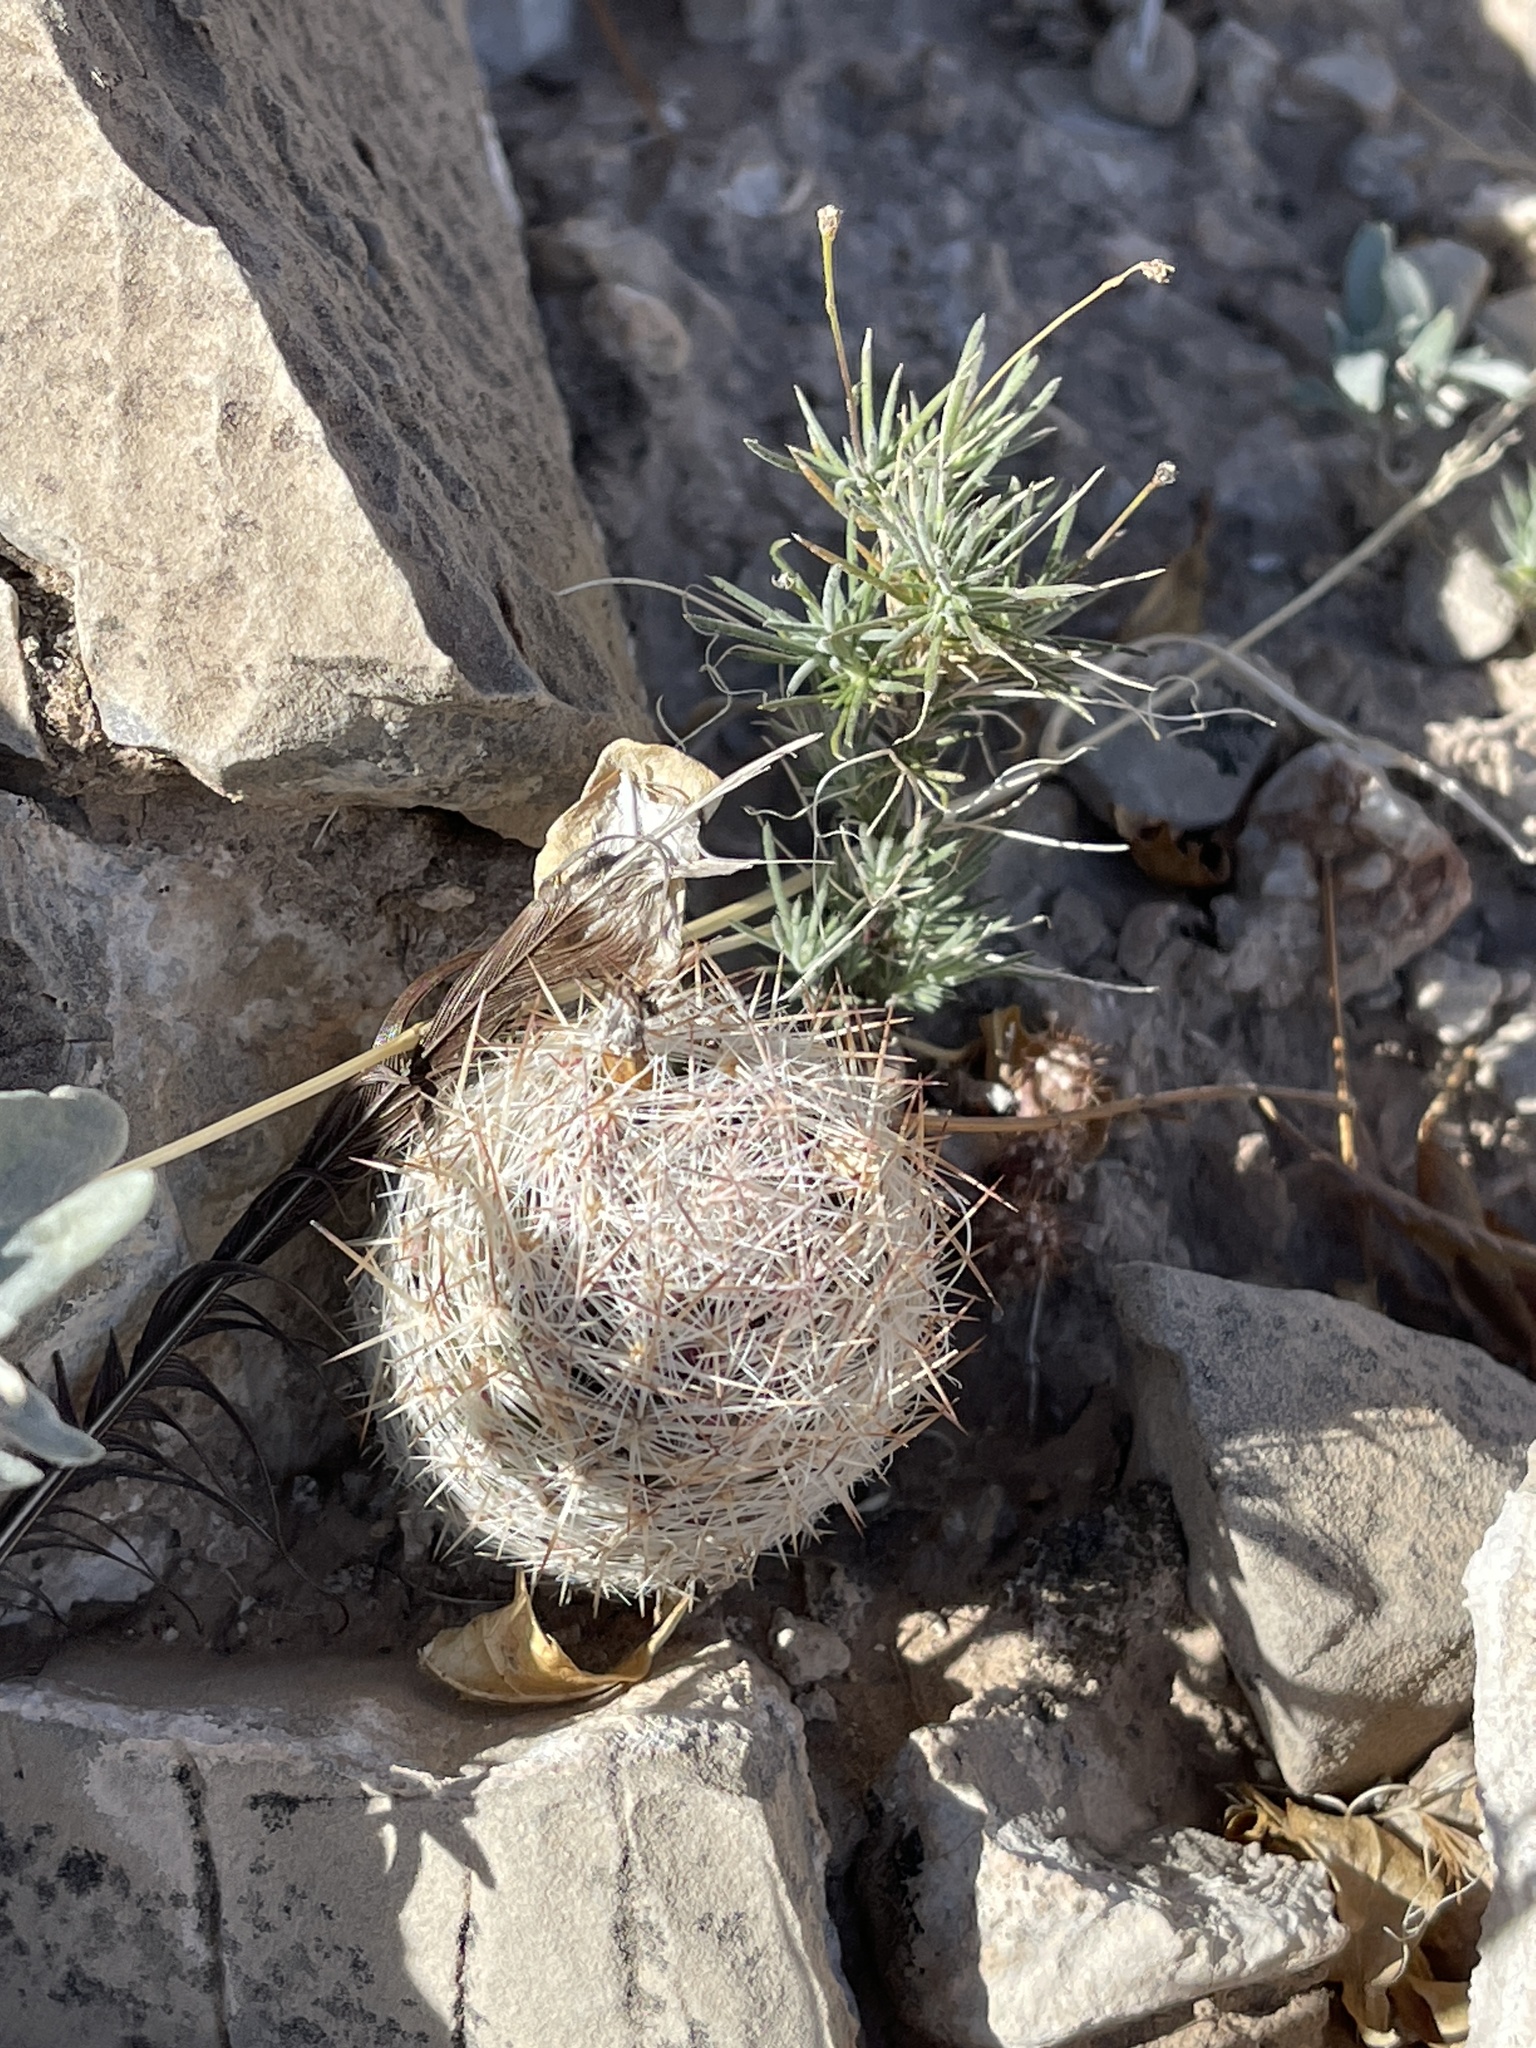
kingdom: Plantae
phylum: Tracheophyta
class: Magnoliopsida
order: Caryophyllales
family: Cactaceae
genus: Pelecyphora
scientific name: Pelecyphora tuberculosa
